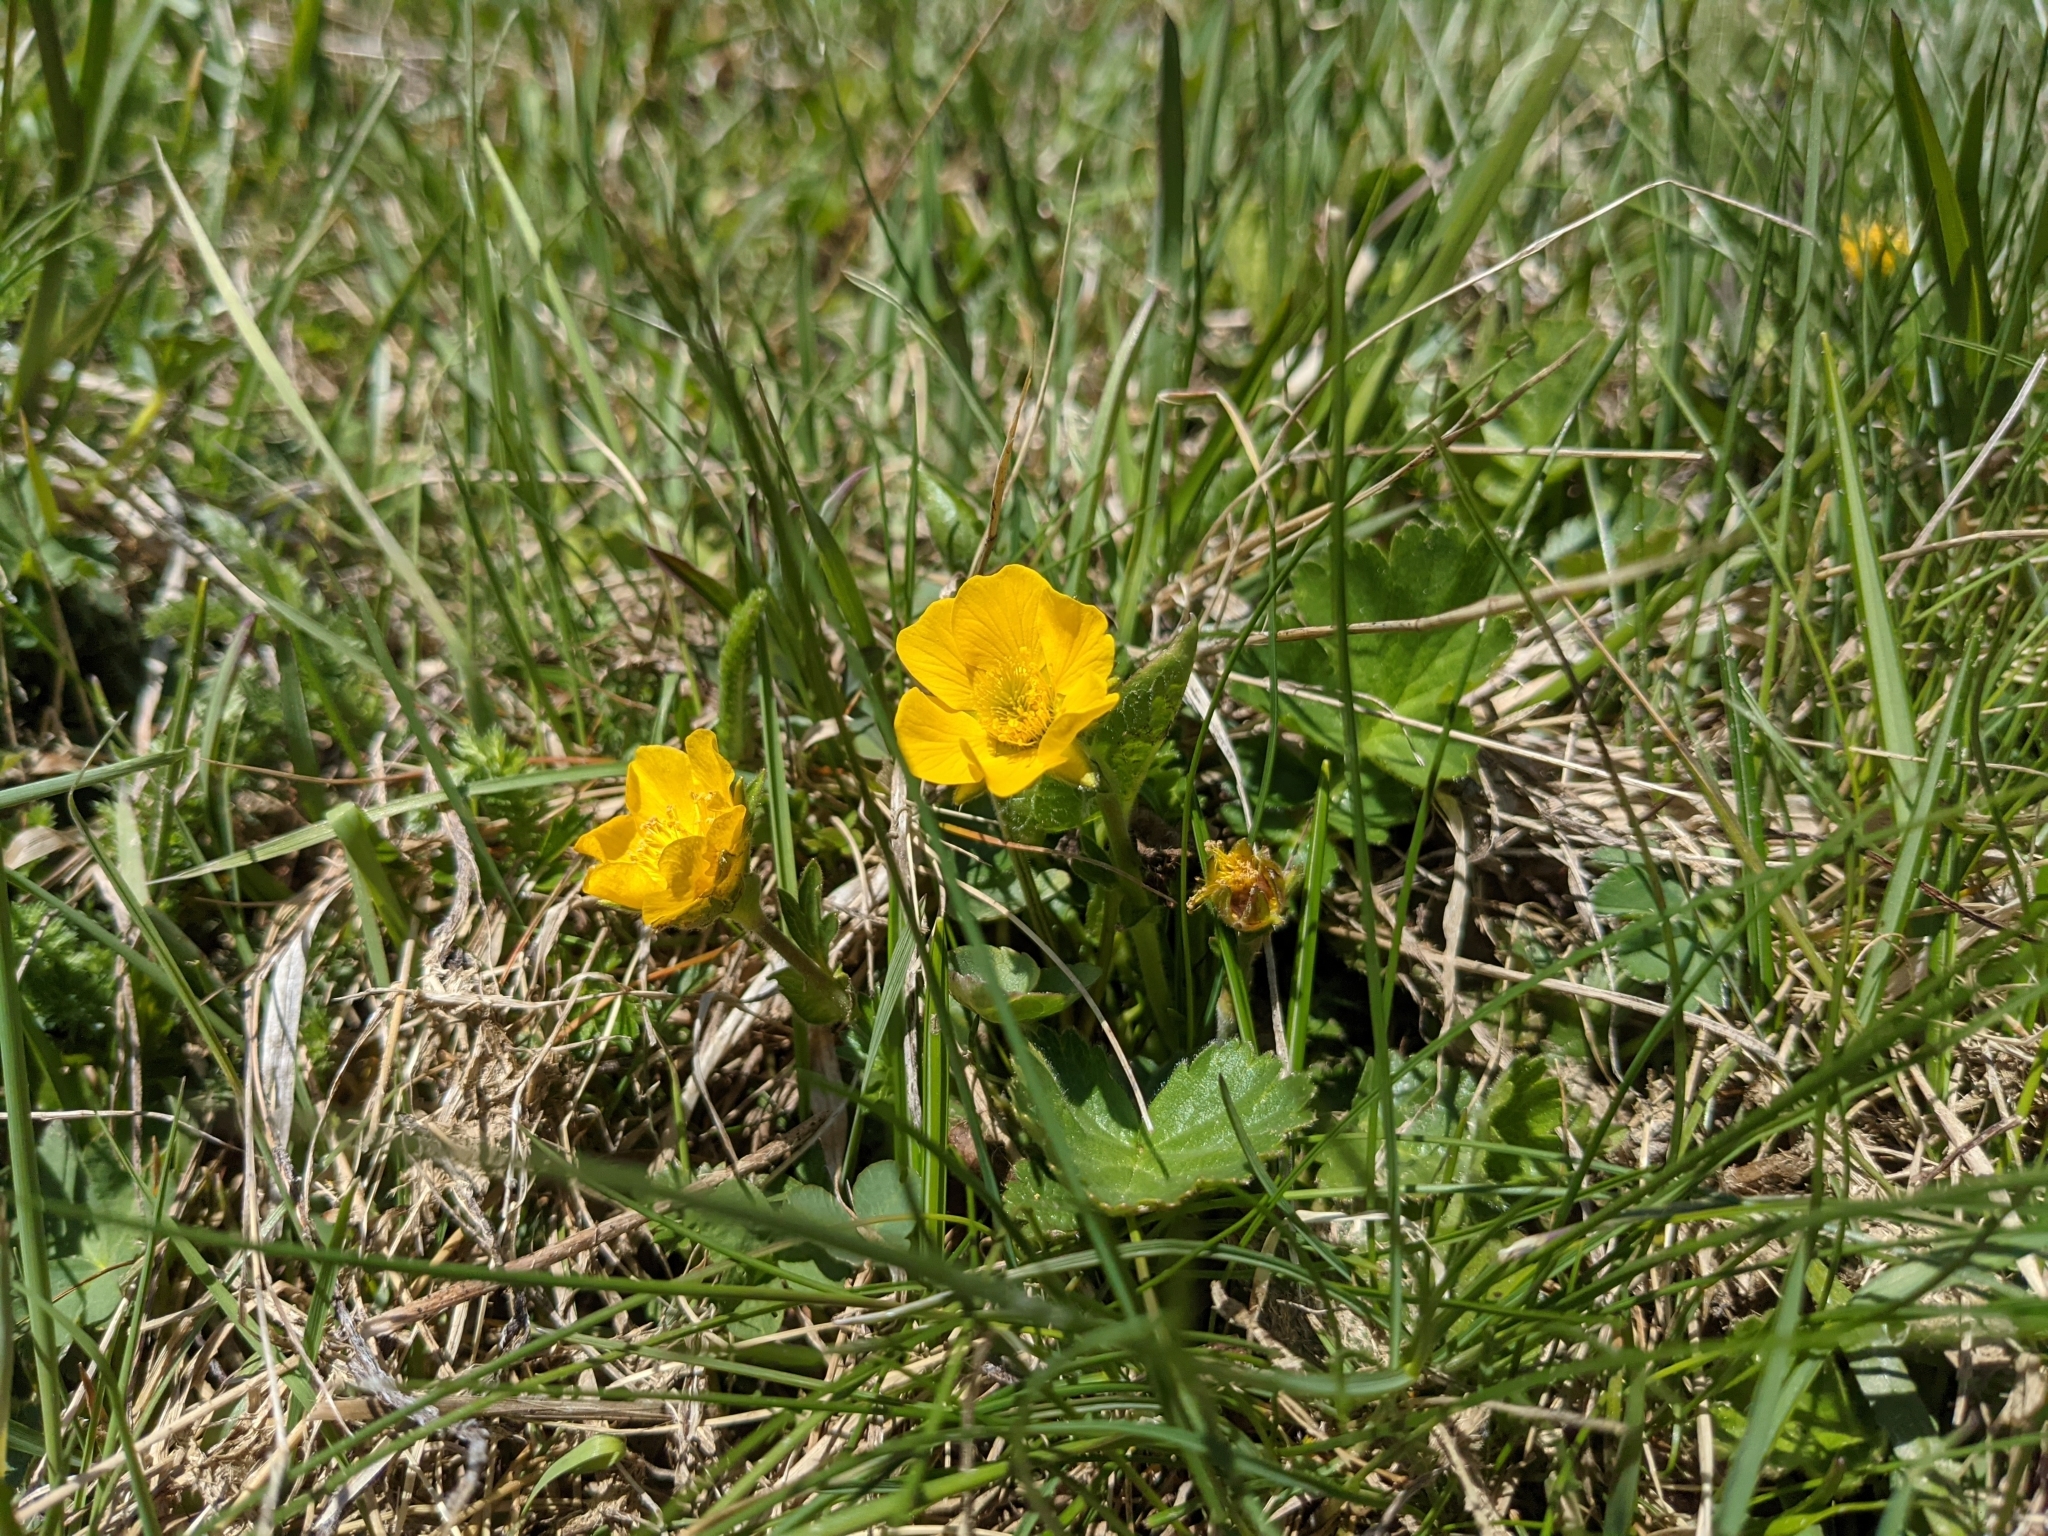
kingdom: Plantae
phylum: Tracheophyta
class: Magnoliopsida
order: Rosales
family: Rosaceae
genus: Geum
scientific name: Geum montanum
